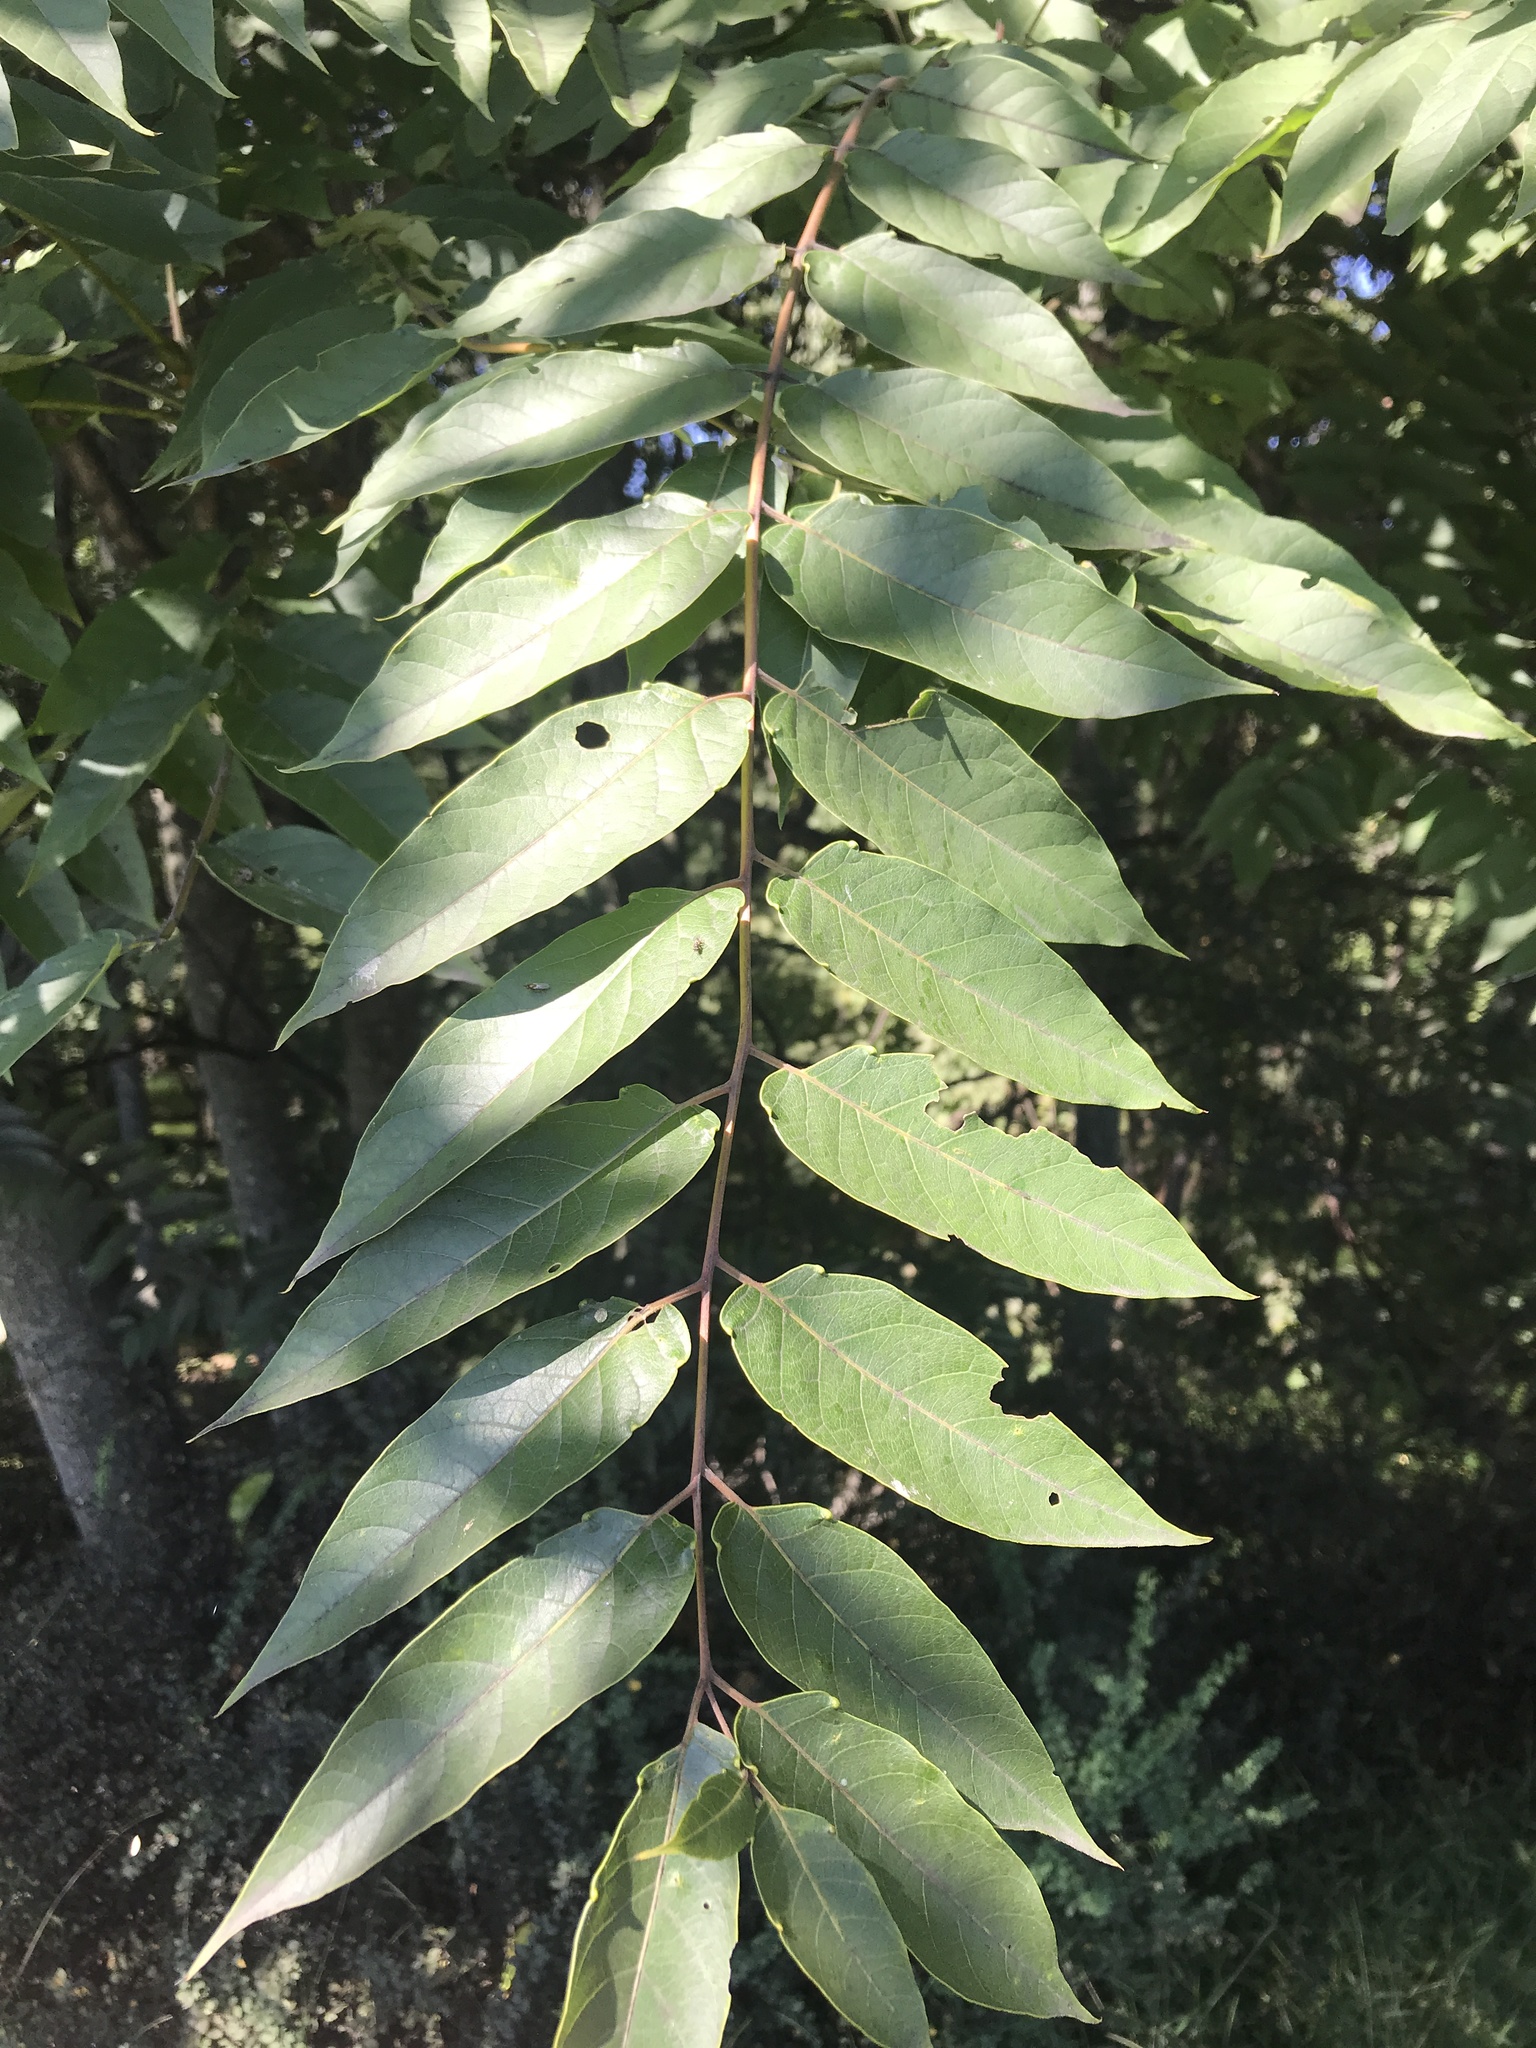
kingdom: Plantae
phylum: Tracheophyta
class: Magnoliopsida
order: Sapindales
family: Simaroubaceae
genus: Ailanthus
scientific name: Ailanthus altissima
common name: Tree-of-heaven
